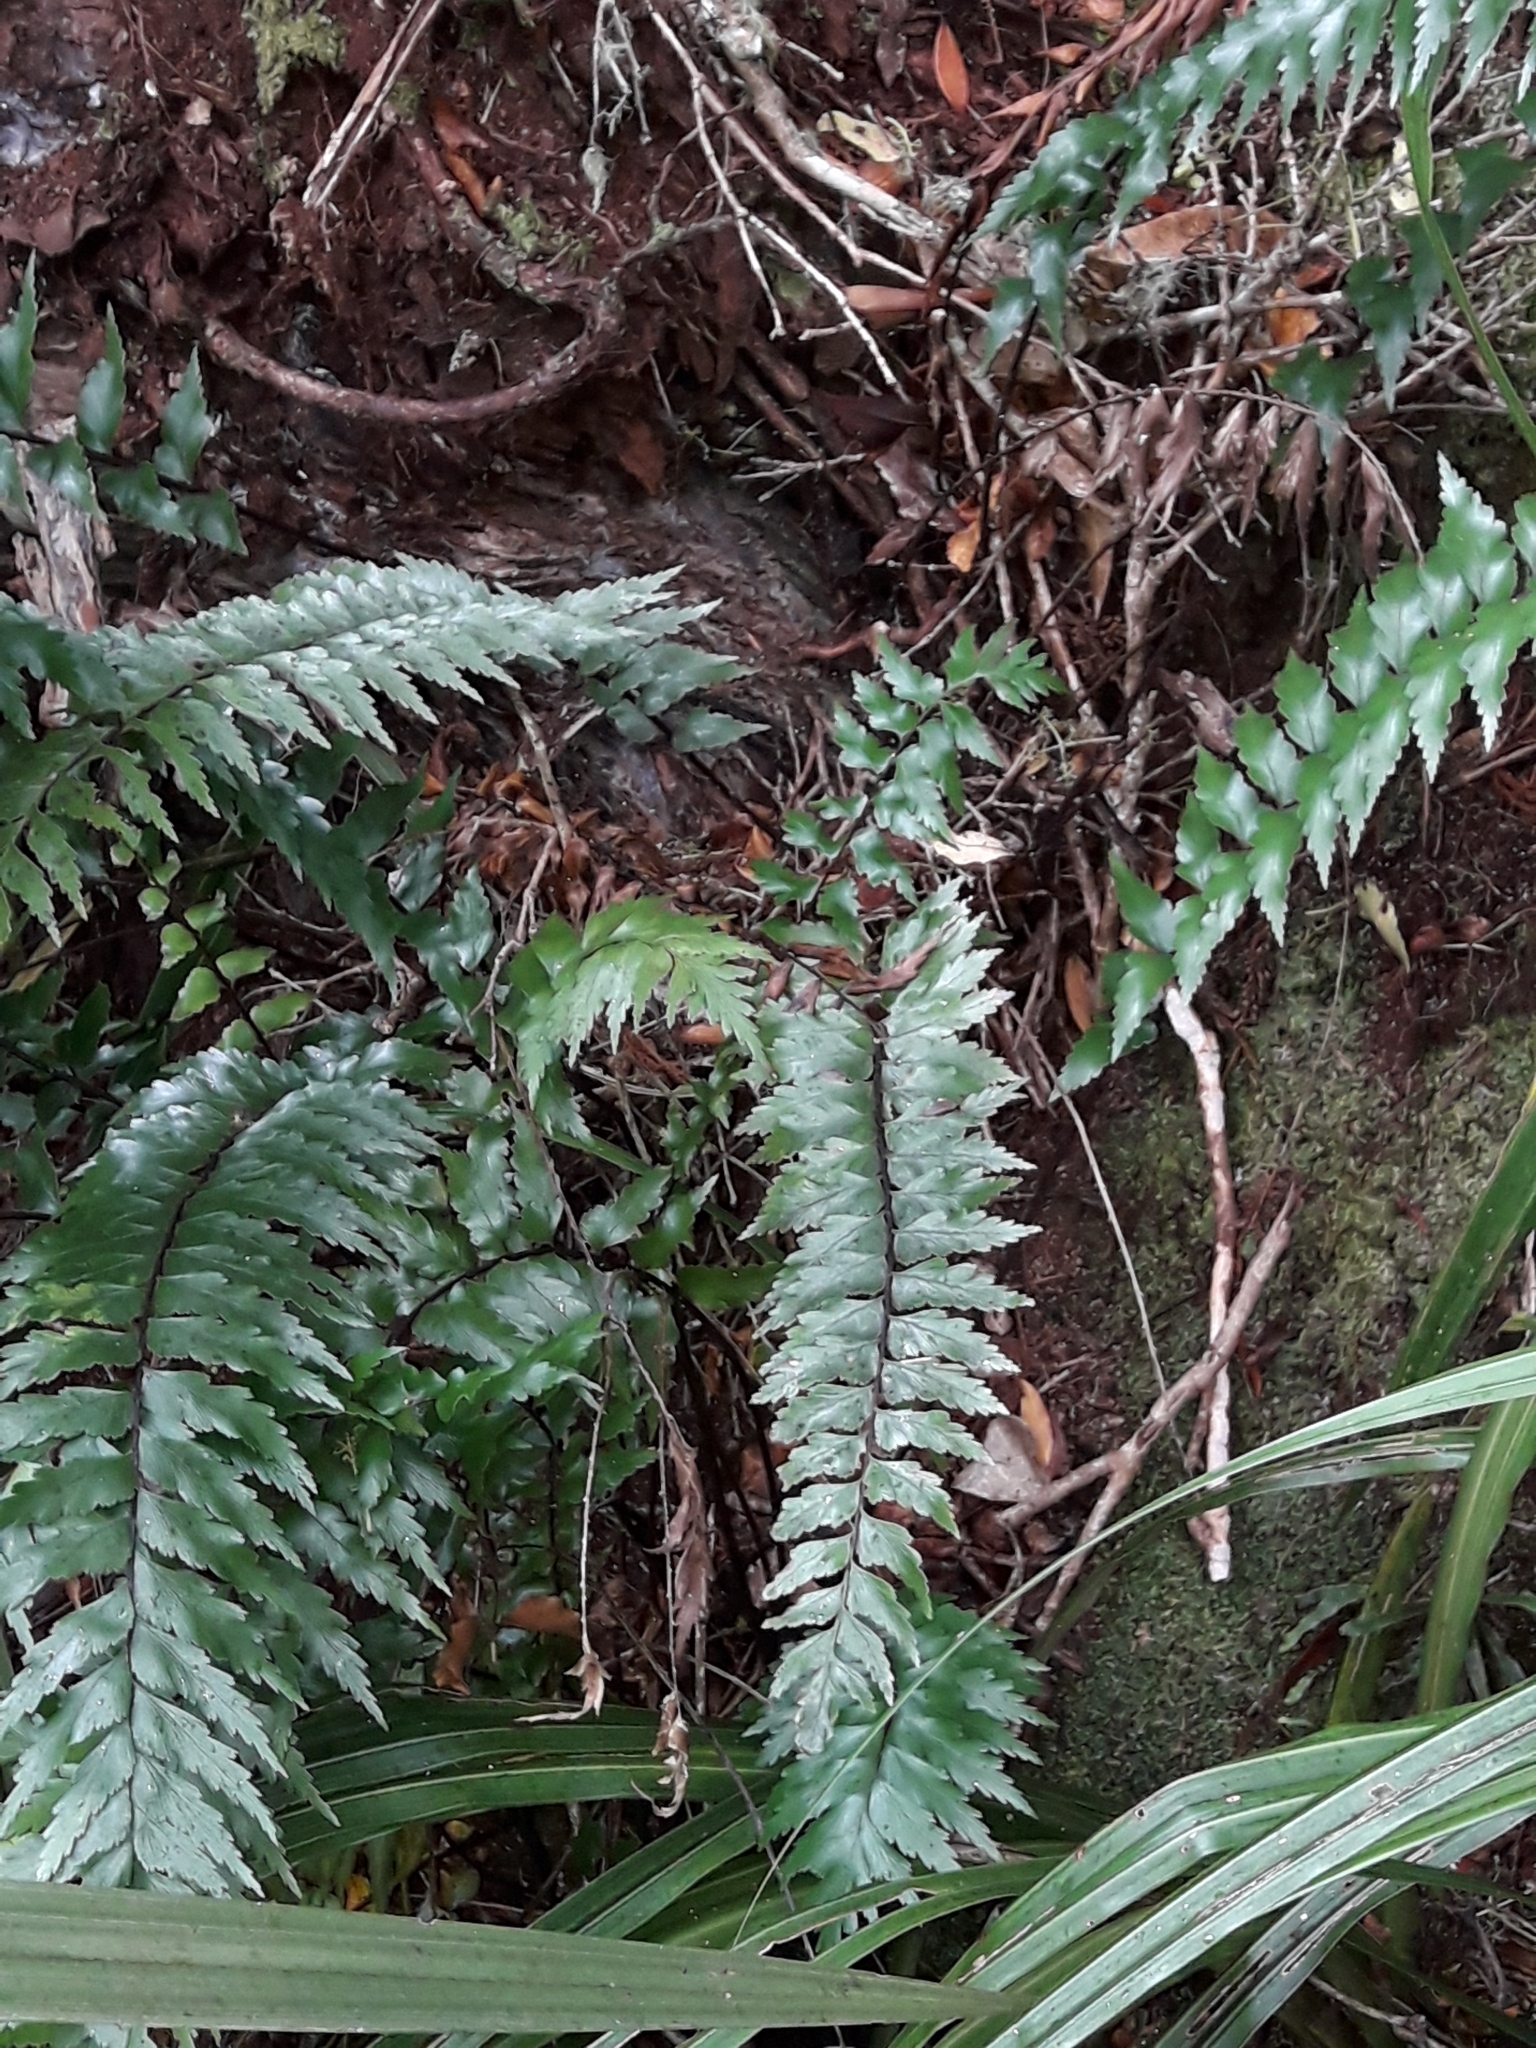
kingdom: Plantae
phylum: Tracheophyta
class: Polypodiopsida
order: Polypodiales
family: Aspleniaceae
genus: Asplenium
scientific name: Asplenium polyodon
